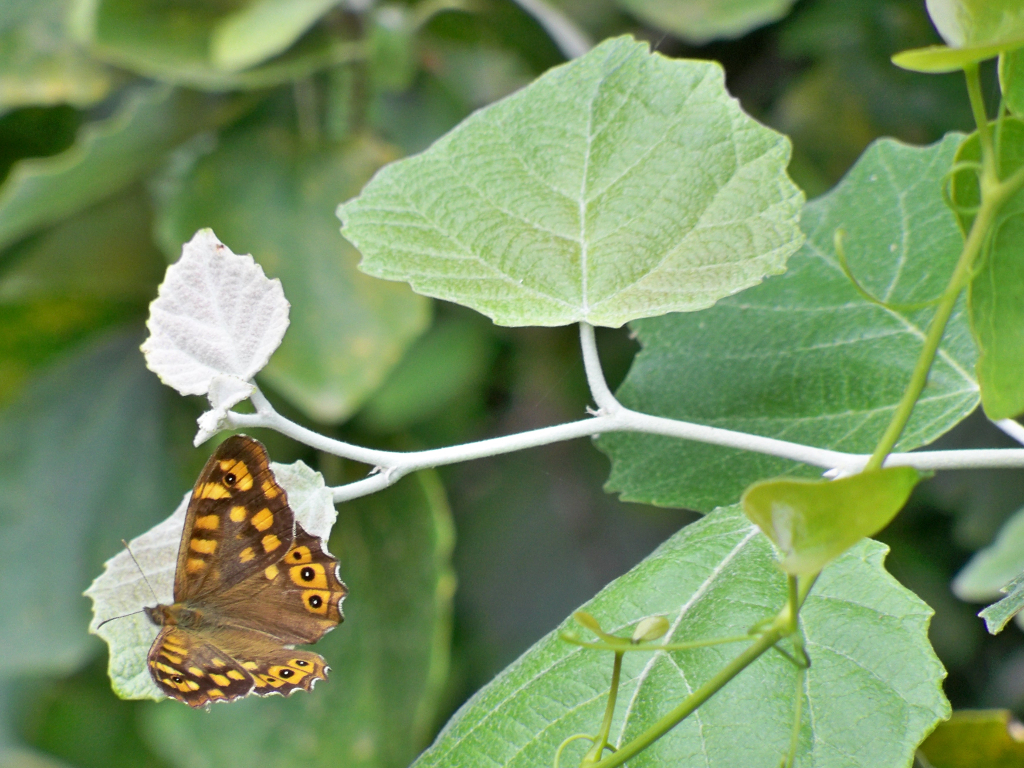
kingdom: Animalia
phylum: Arthropoda
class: Insecta
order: Lepidoptera
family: Nymphalidae
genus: Pararge
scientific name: Pararge aegeria
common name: Speckled wood
